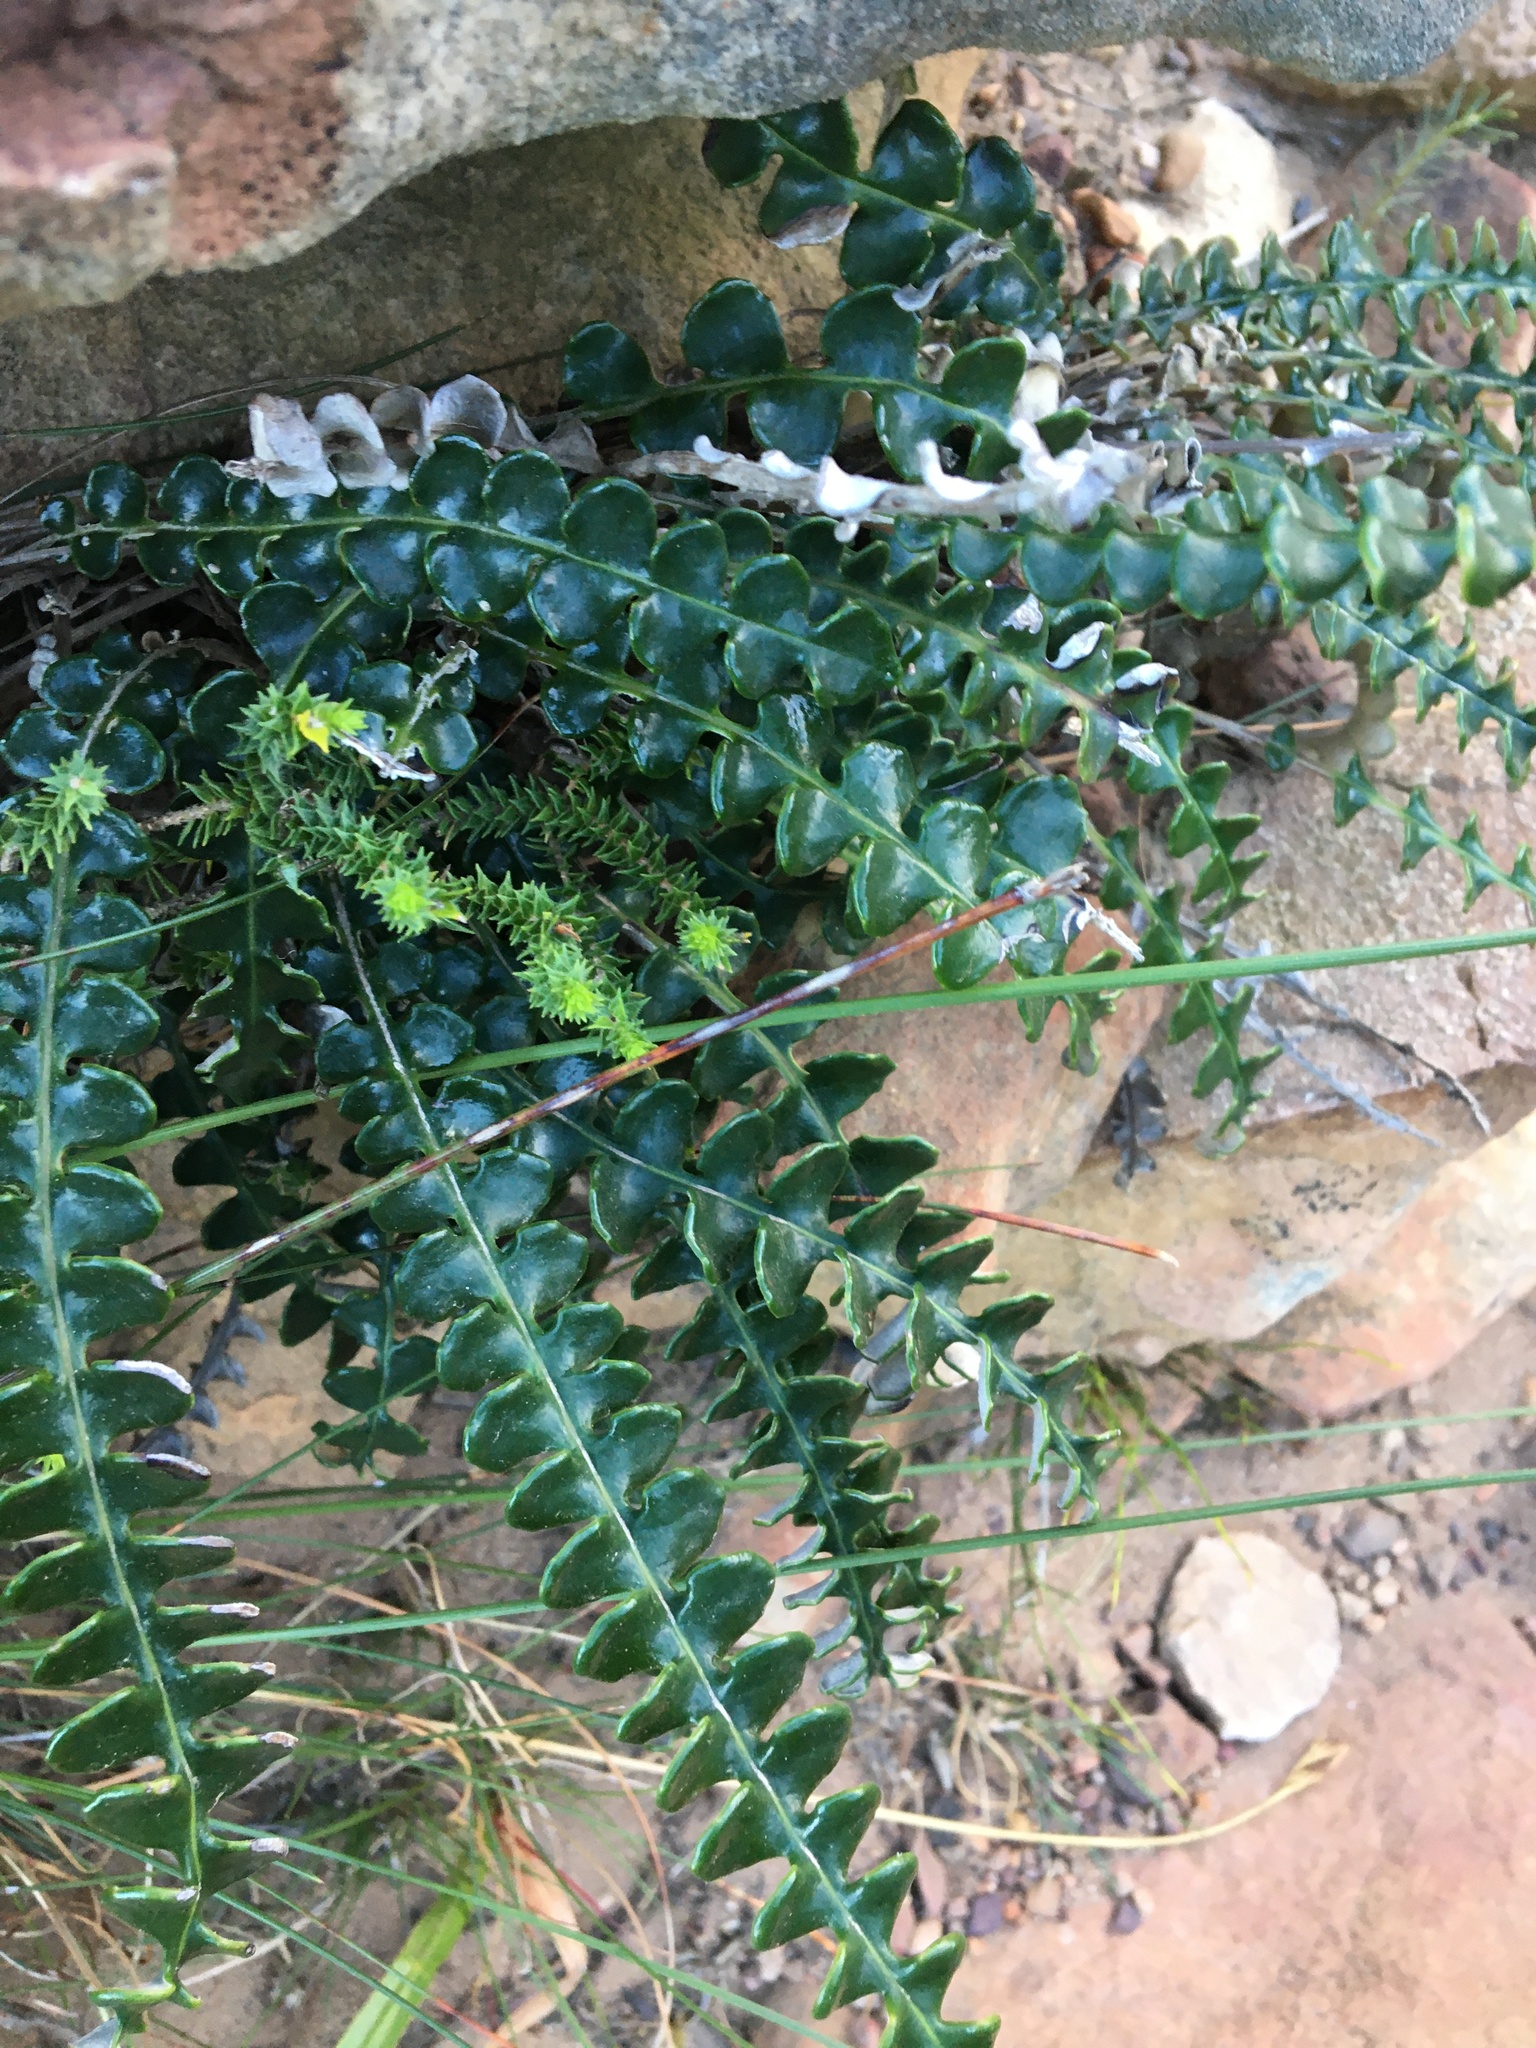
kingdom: Plantae
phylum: Tracheophyta
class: Magnoliopsida
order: Asterales
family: Asteraceae
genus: Gerbera
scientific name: Gerbera linnaei
